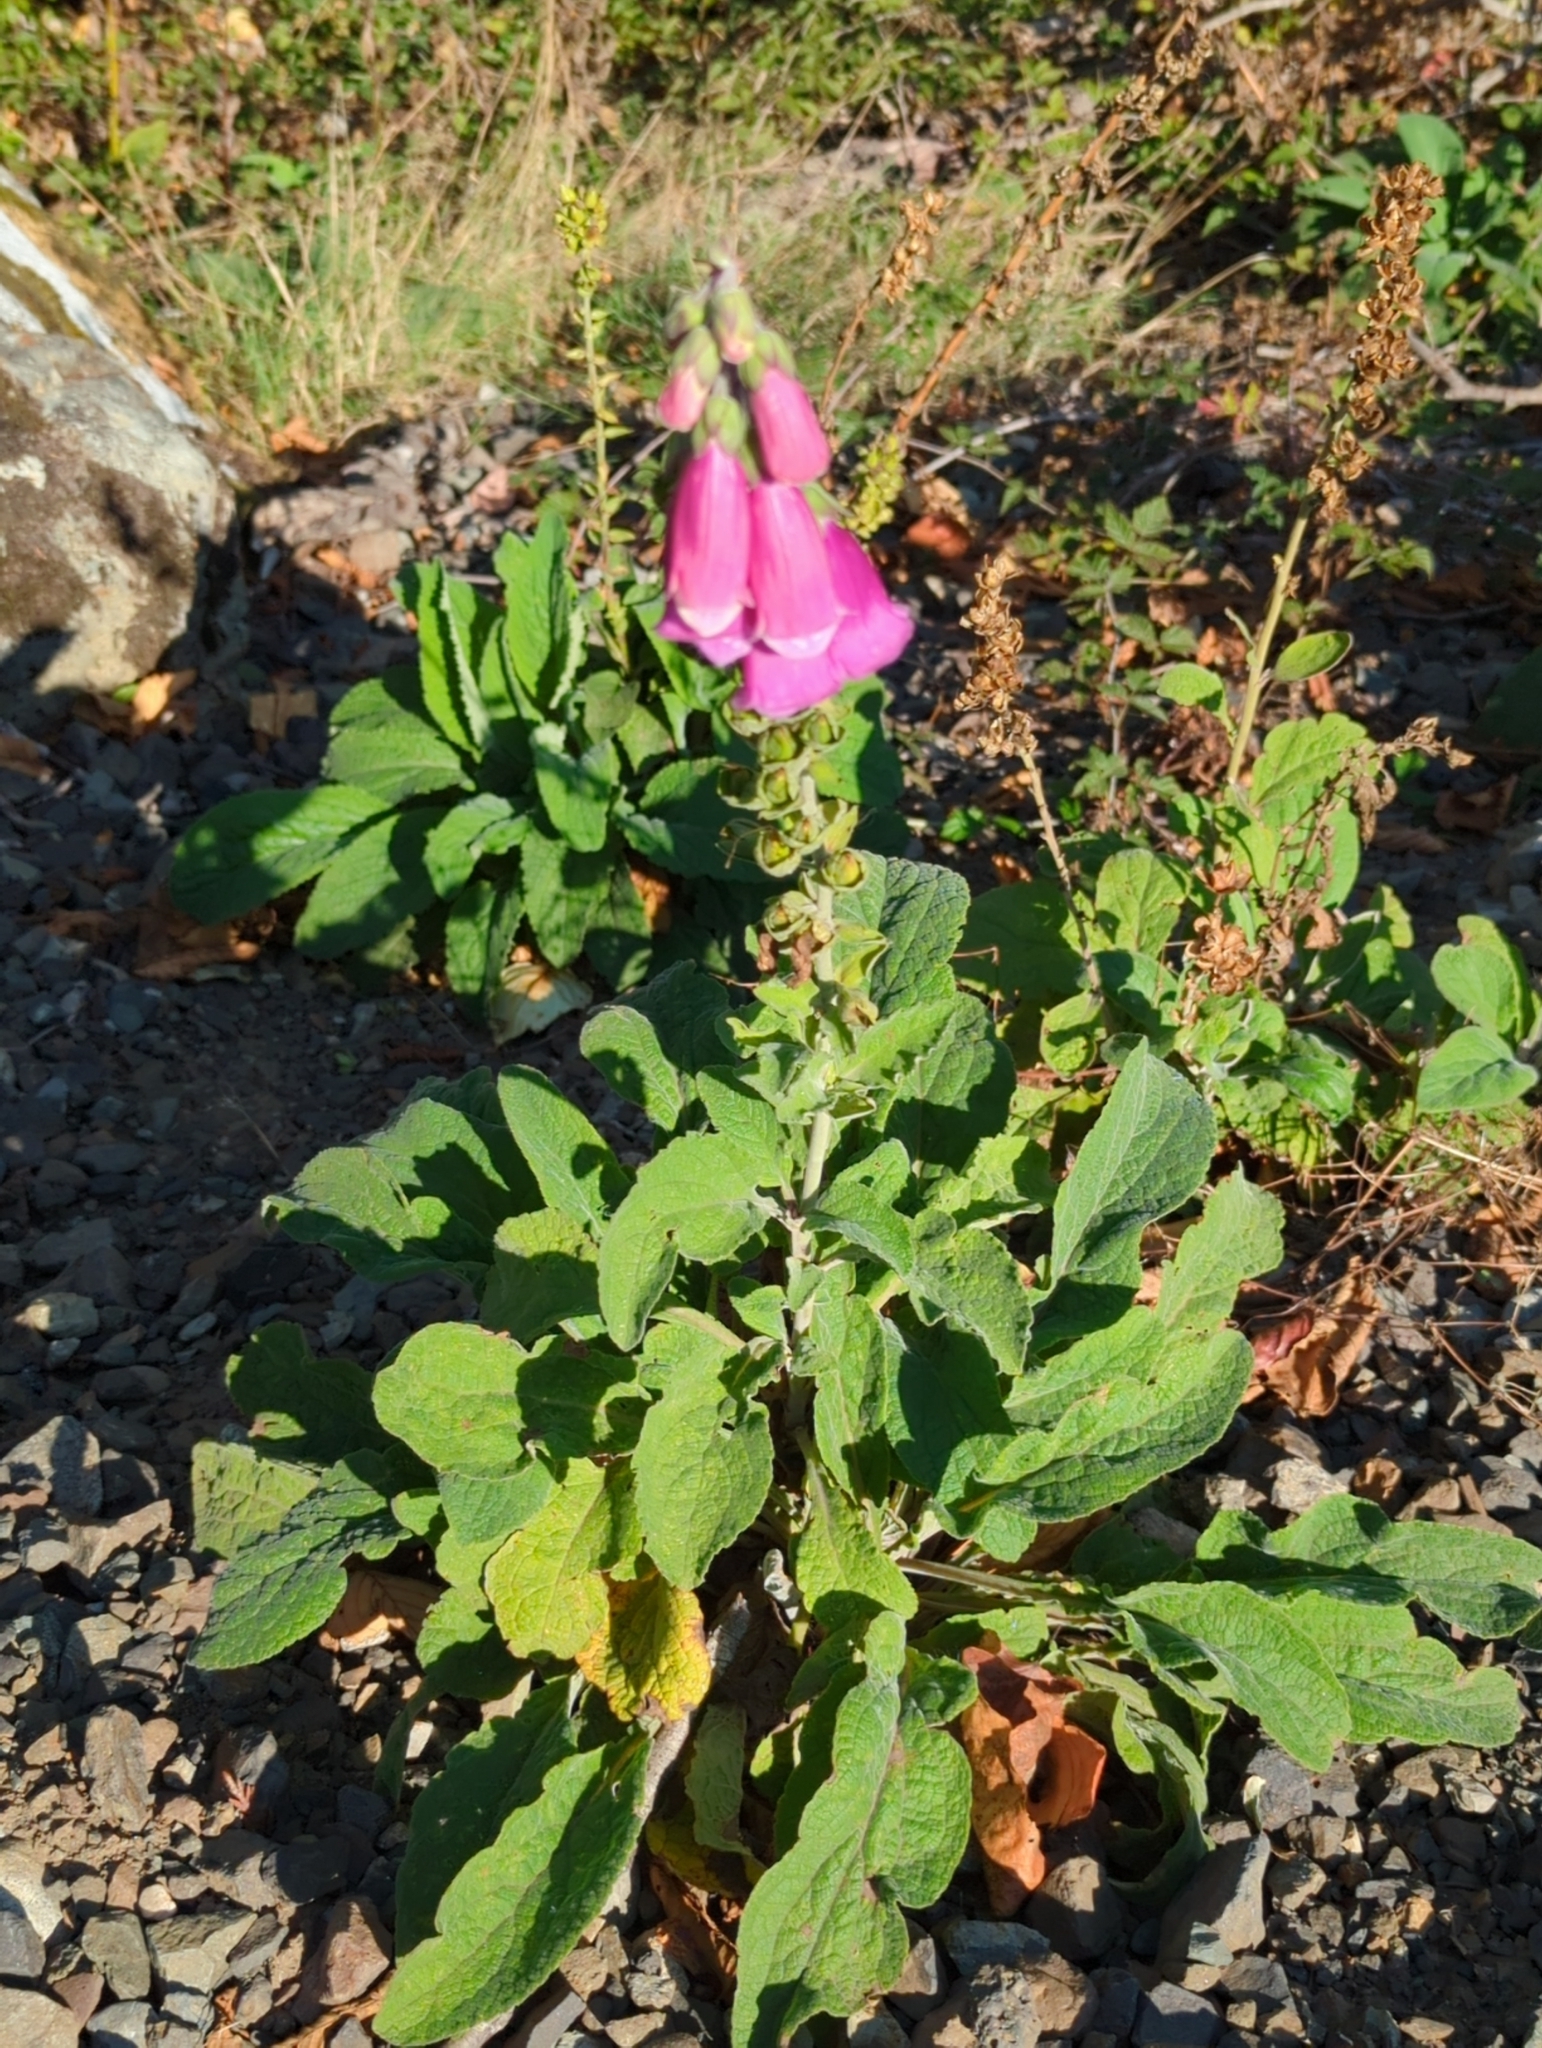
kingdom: Plantae
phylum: Tracheophyta
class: Magnoliopsida
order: Lamiales
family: Plantaginaceae
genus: Digitalis
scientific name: Digitalis purpurea
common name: Foxglove
